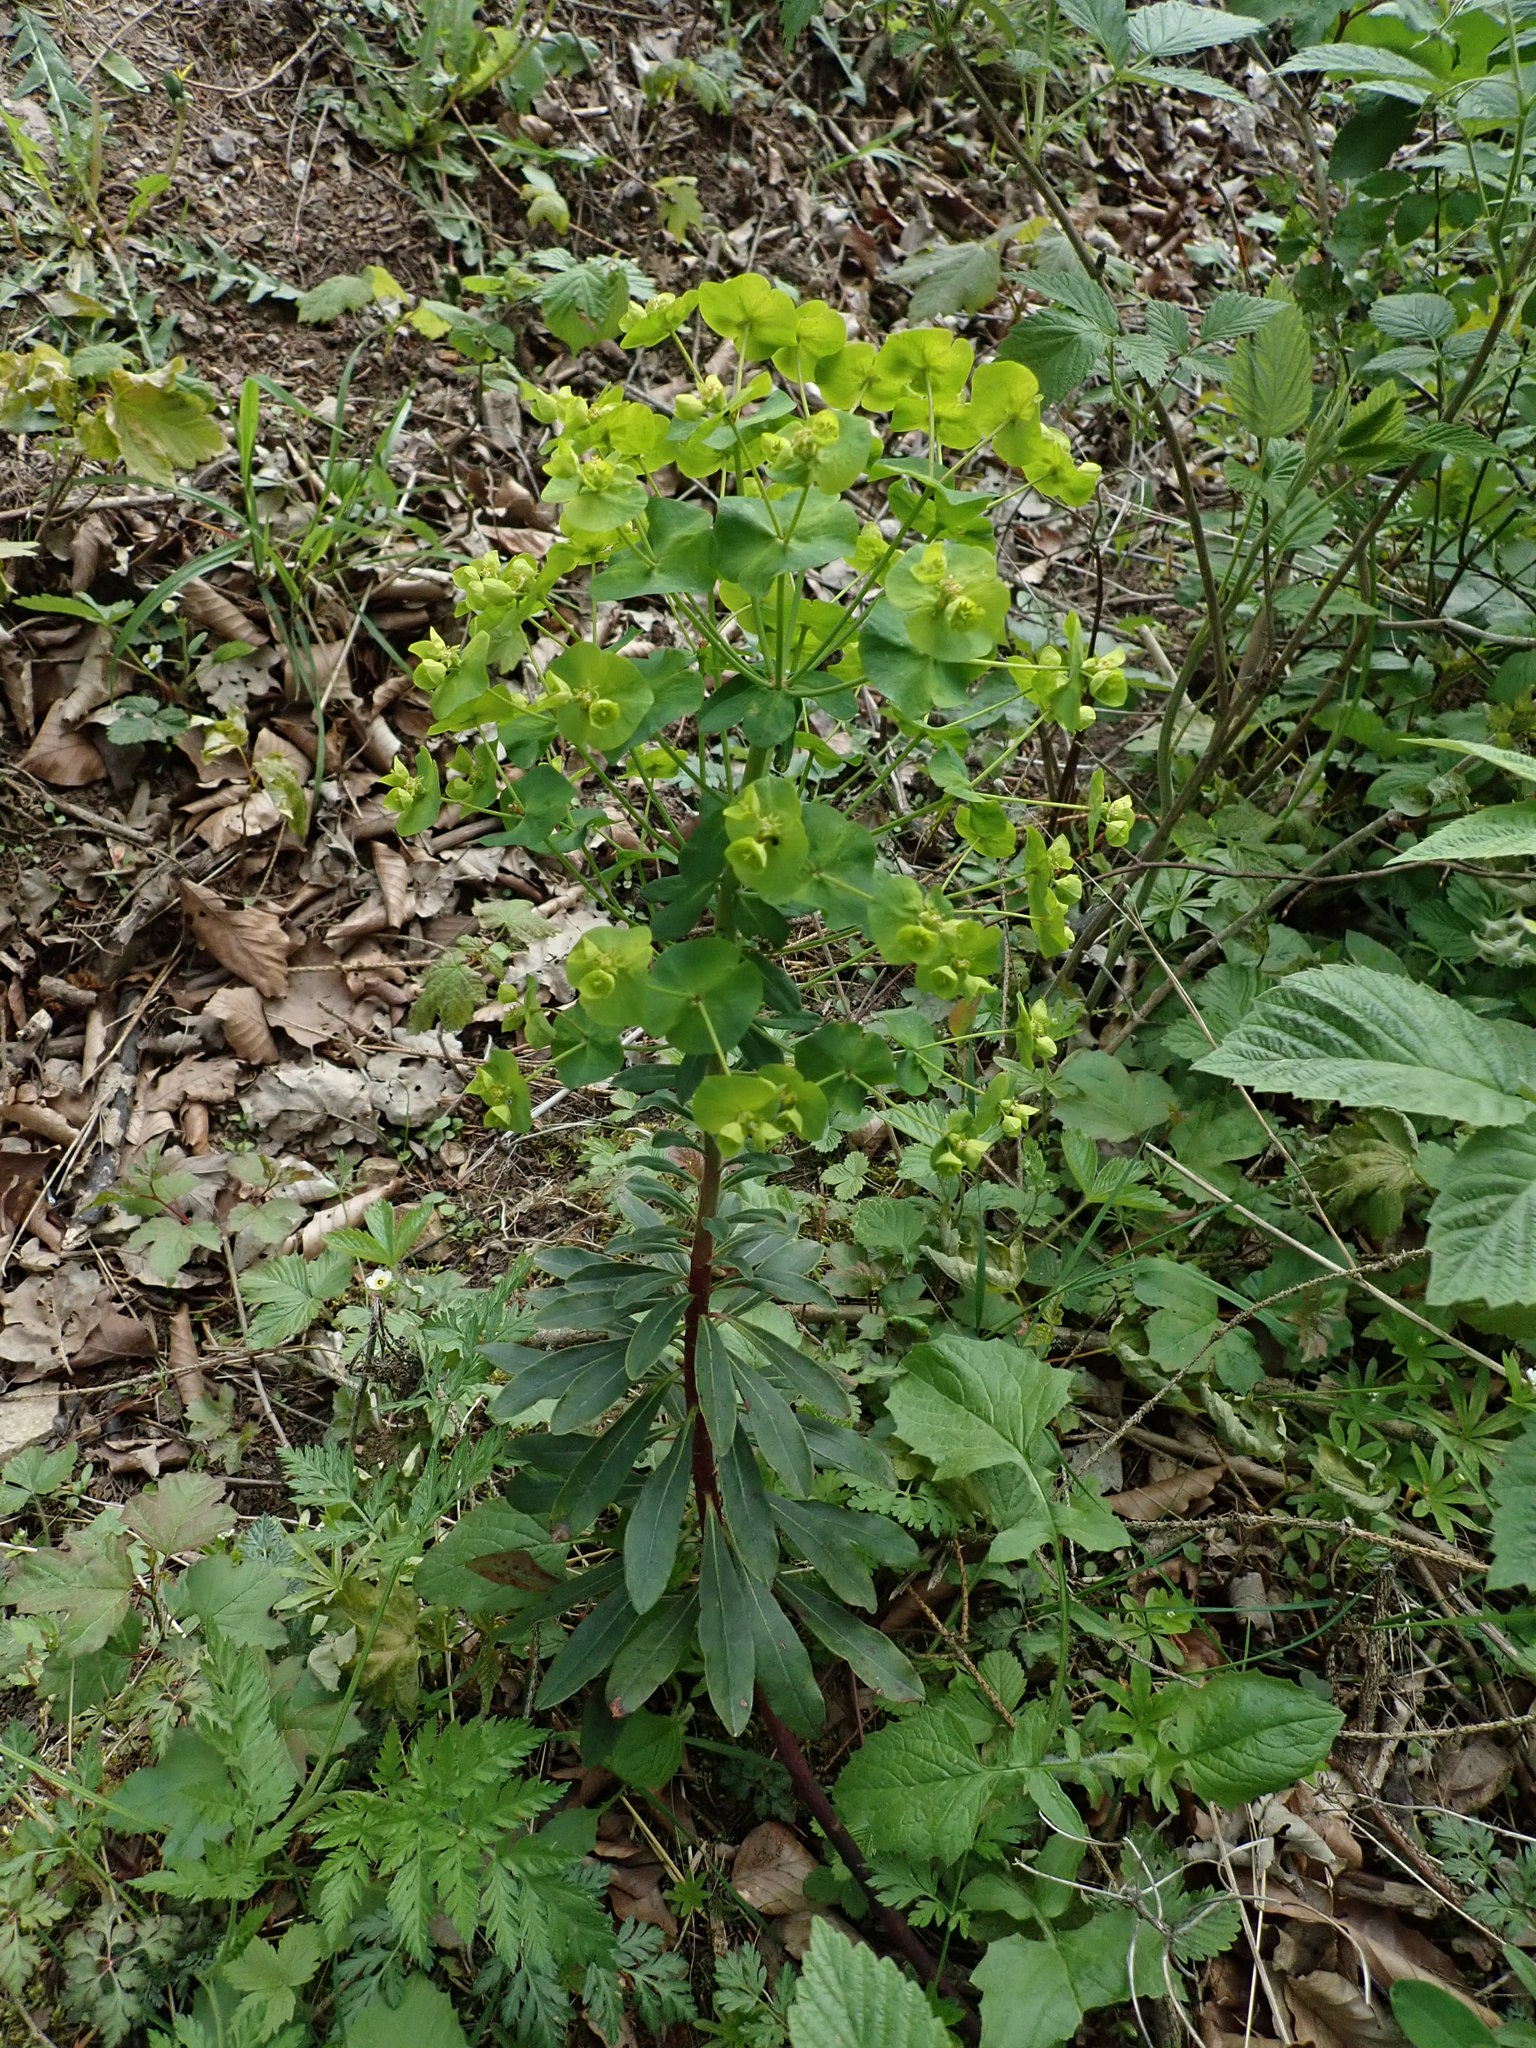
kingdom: Plantae
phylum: Tracheophyta
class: Magnoliopsida
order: Malpighiales
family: Euphorbiaceae
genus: Euphorbia
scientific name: Euphorbia amygdaloides
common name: Wood spurge
